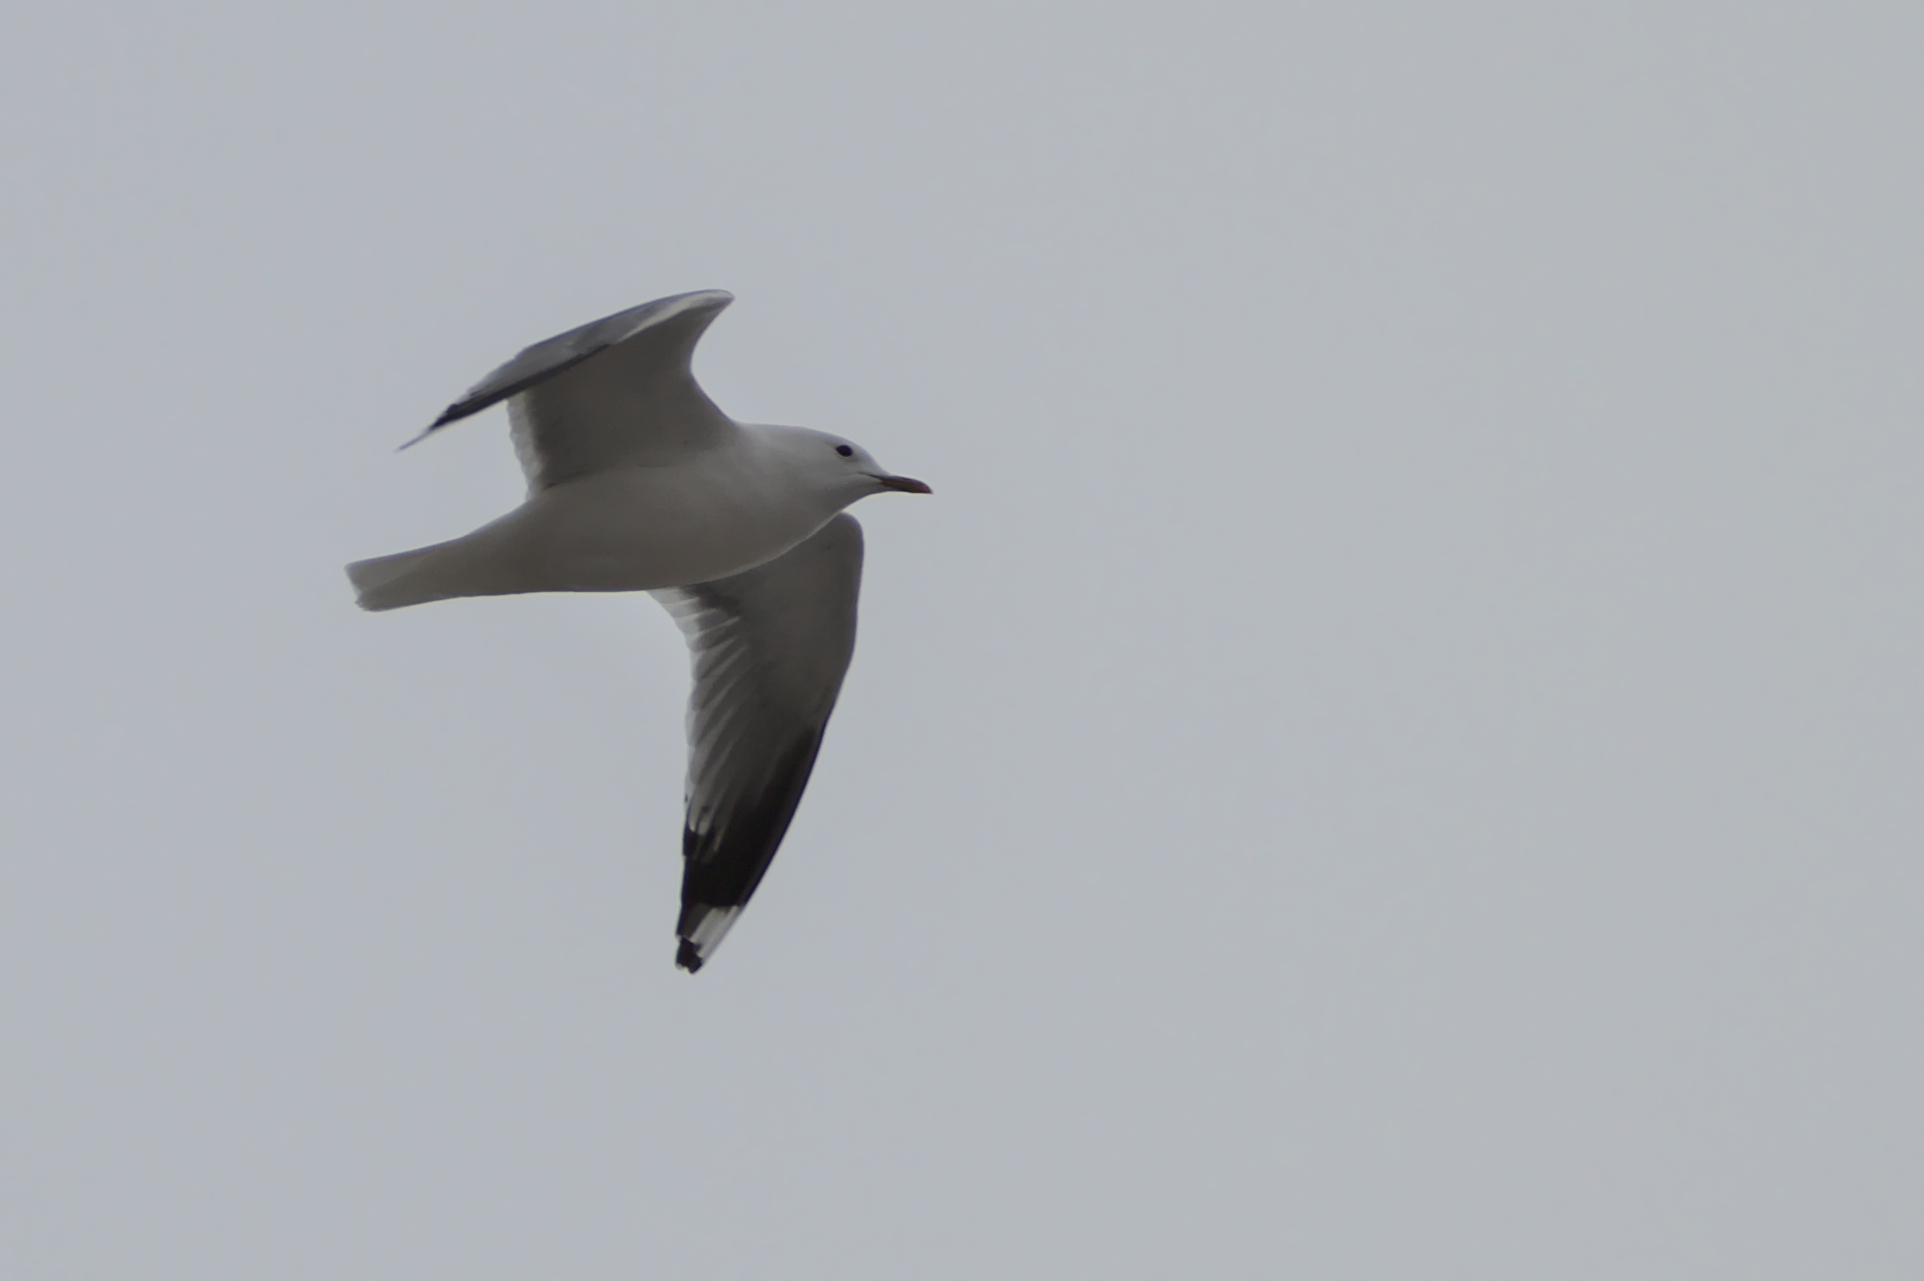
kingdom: Animalia
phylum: Chordata
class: Aves
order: Charadriiformes
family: Laridae
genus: Larus
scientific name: Larus canus
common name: Mew gull
